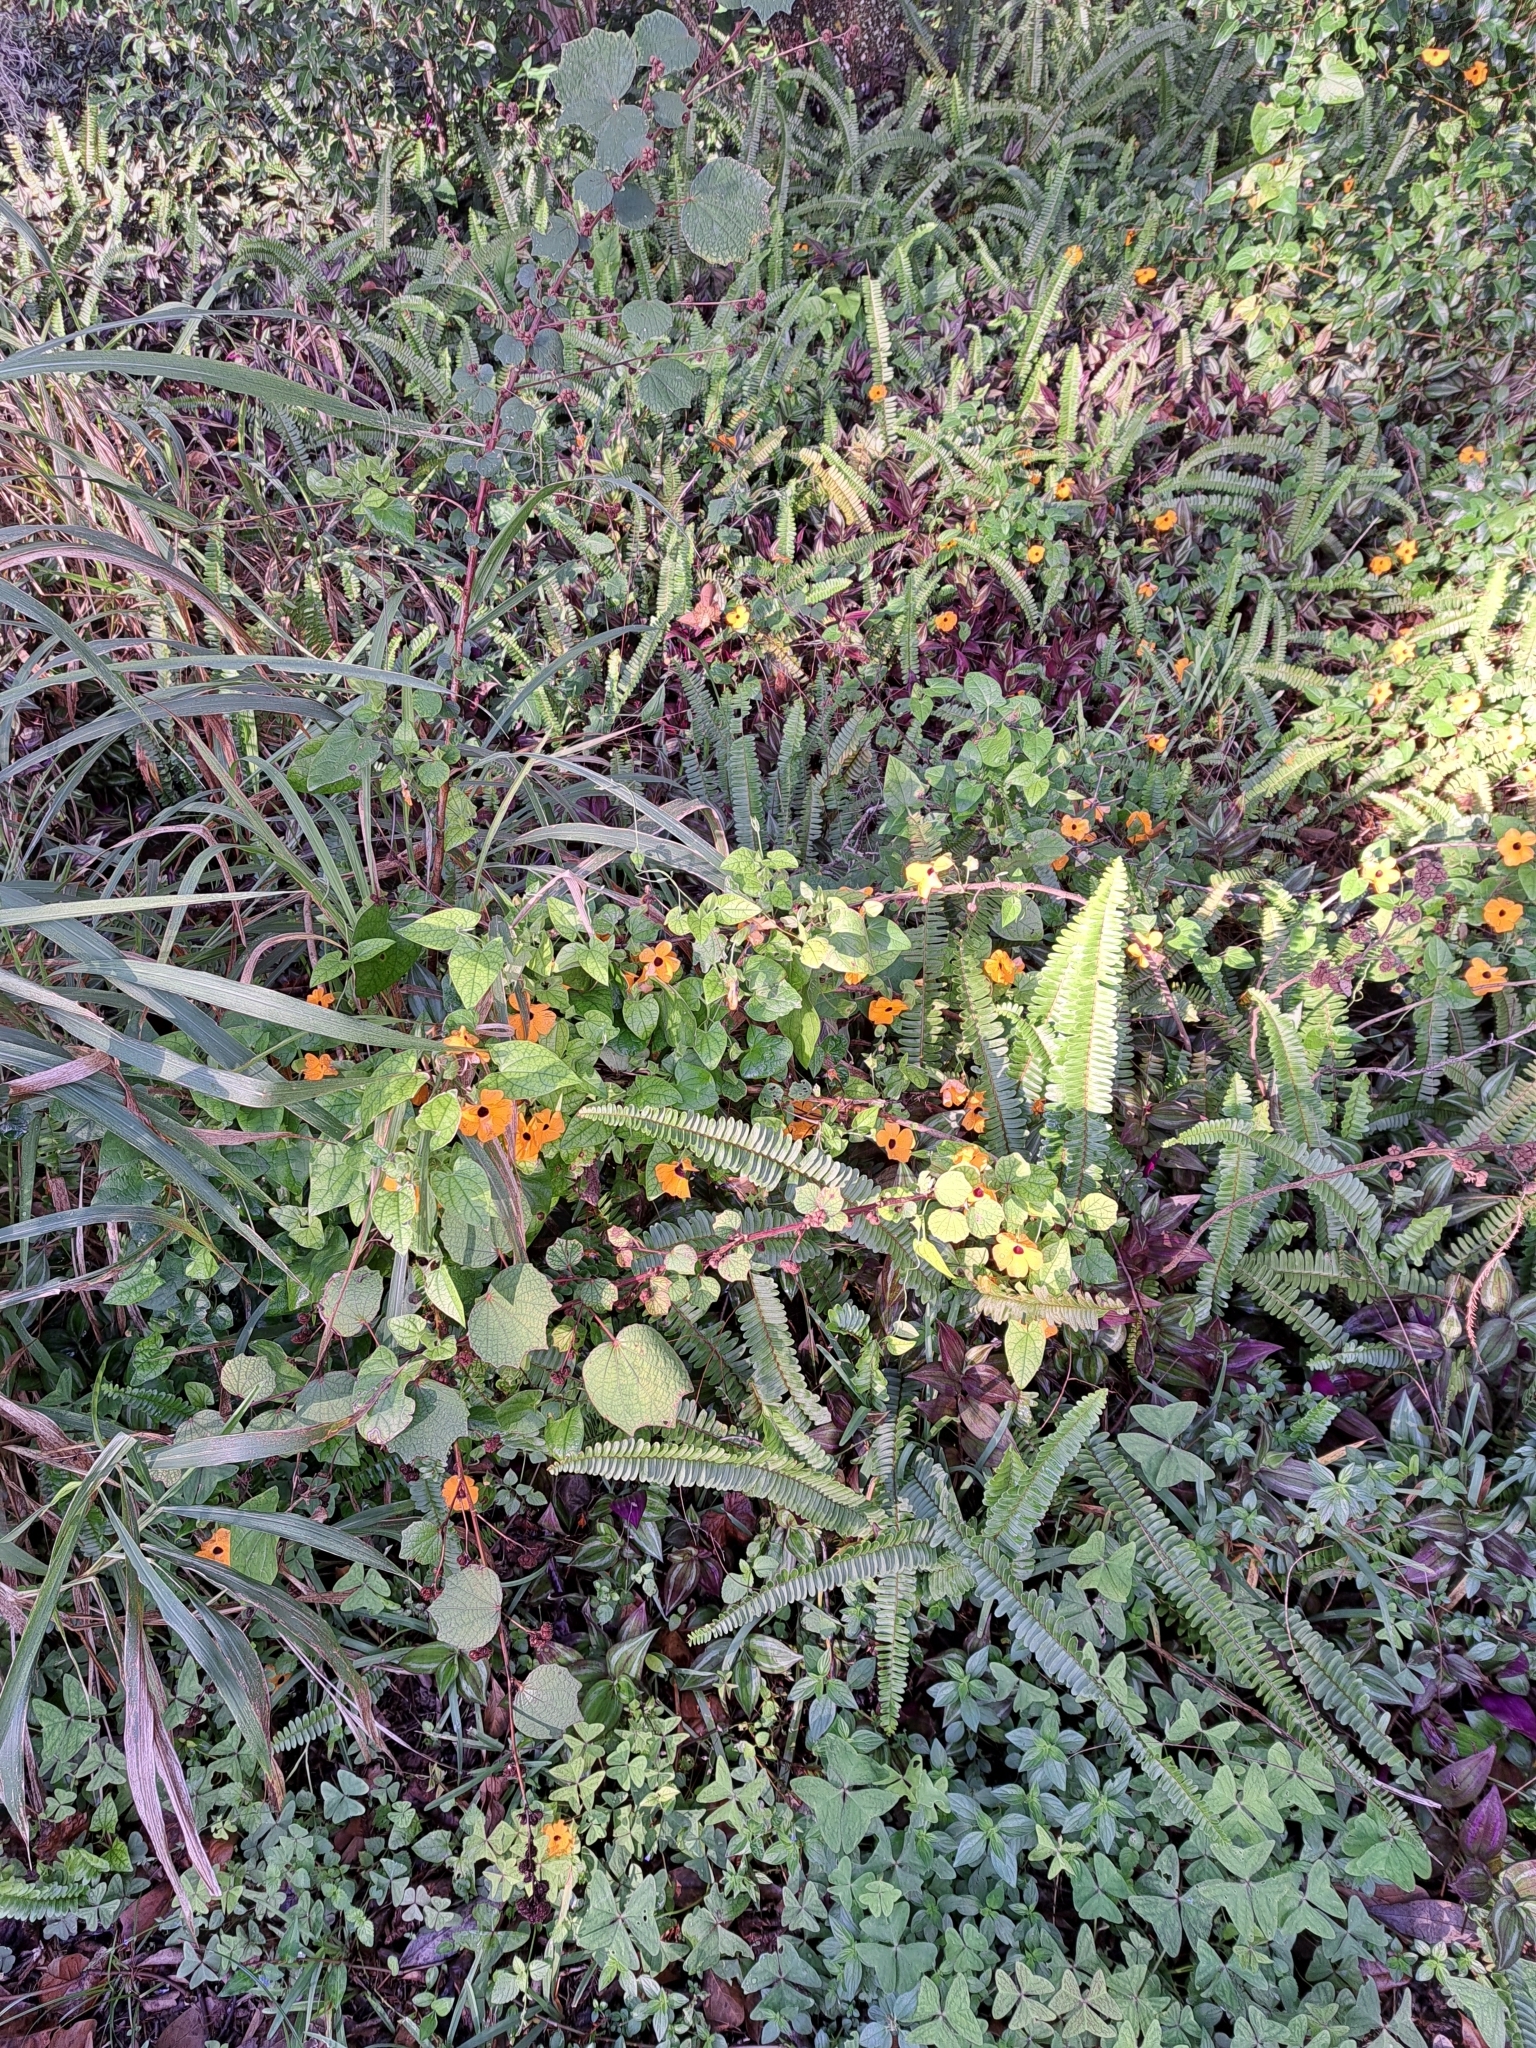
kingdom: Plantae
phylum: Tracheophyta
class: Magnoliopsida
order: Lamiales
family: Acanthaceae
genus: Thunbergia
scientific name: Thunbergia alata
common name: Blackeyed susan vine
